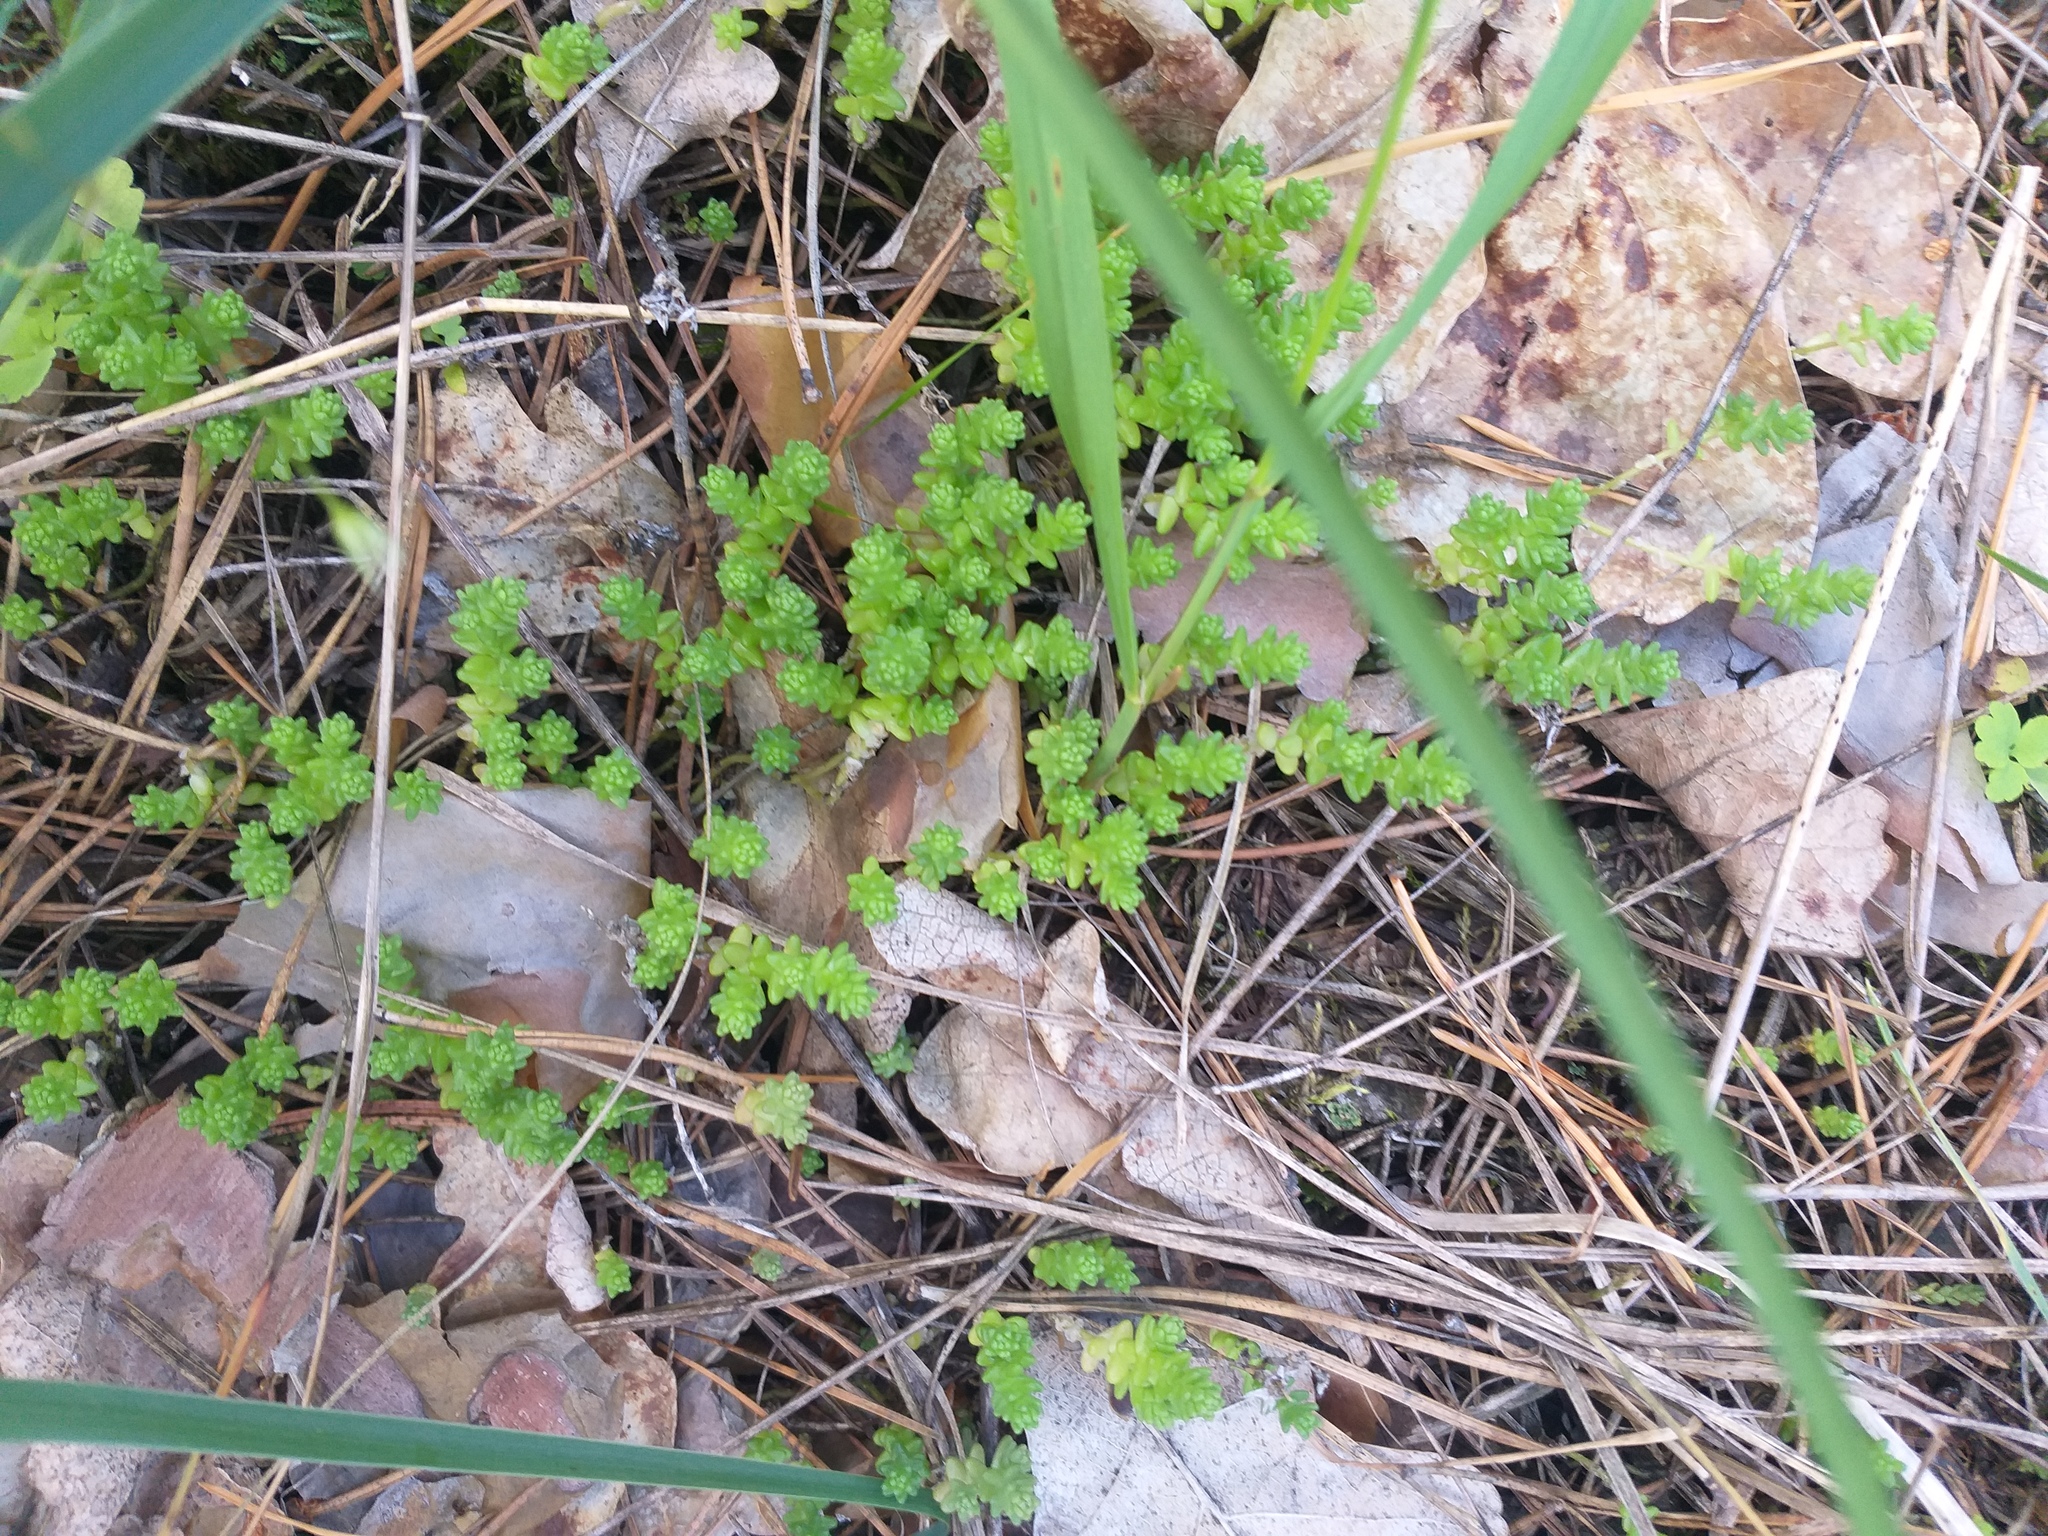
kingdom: Plantae
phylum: Tracheophyta
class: Magnoliopsida
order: Saxifragales
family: Crassulaceae
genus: Sedum
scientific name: Sedum acre
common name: Biting stonecrop
